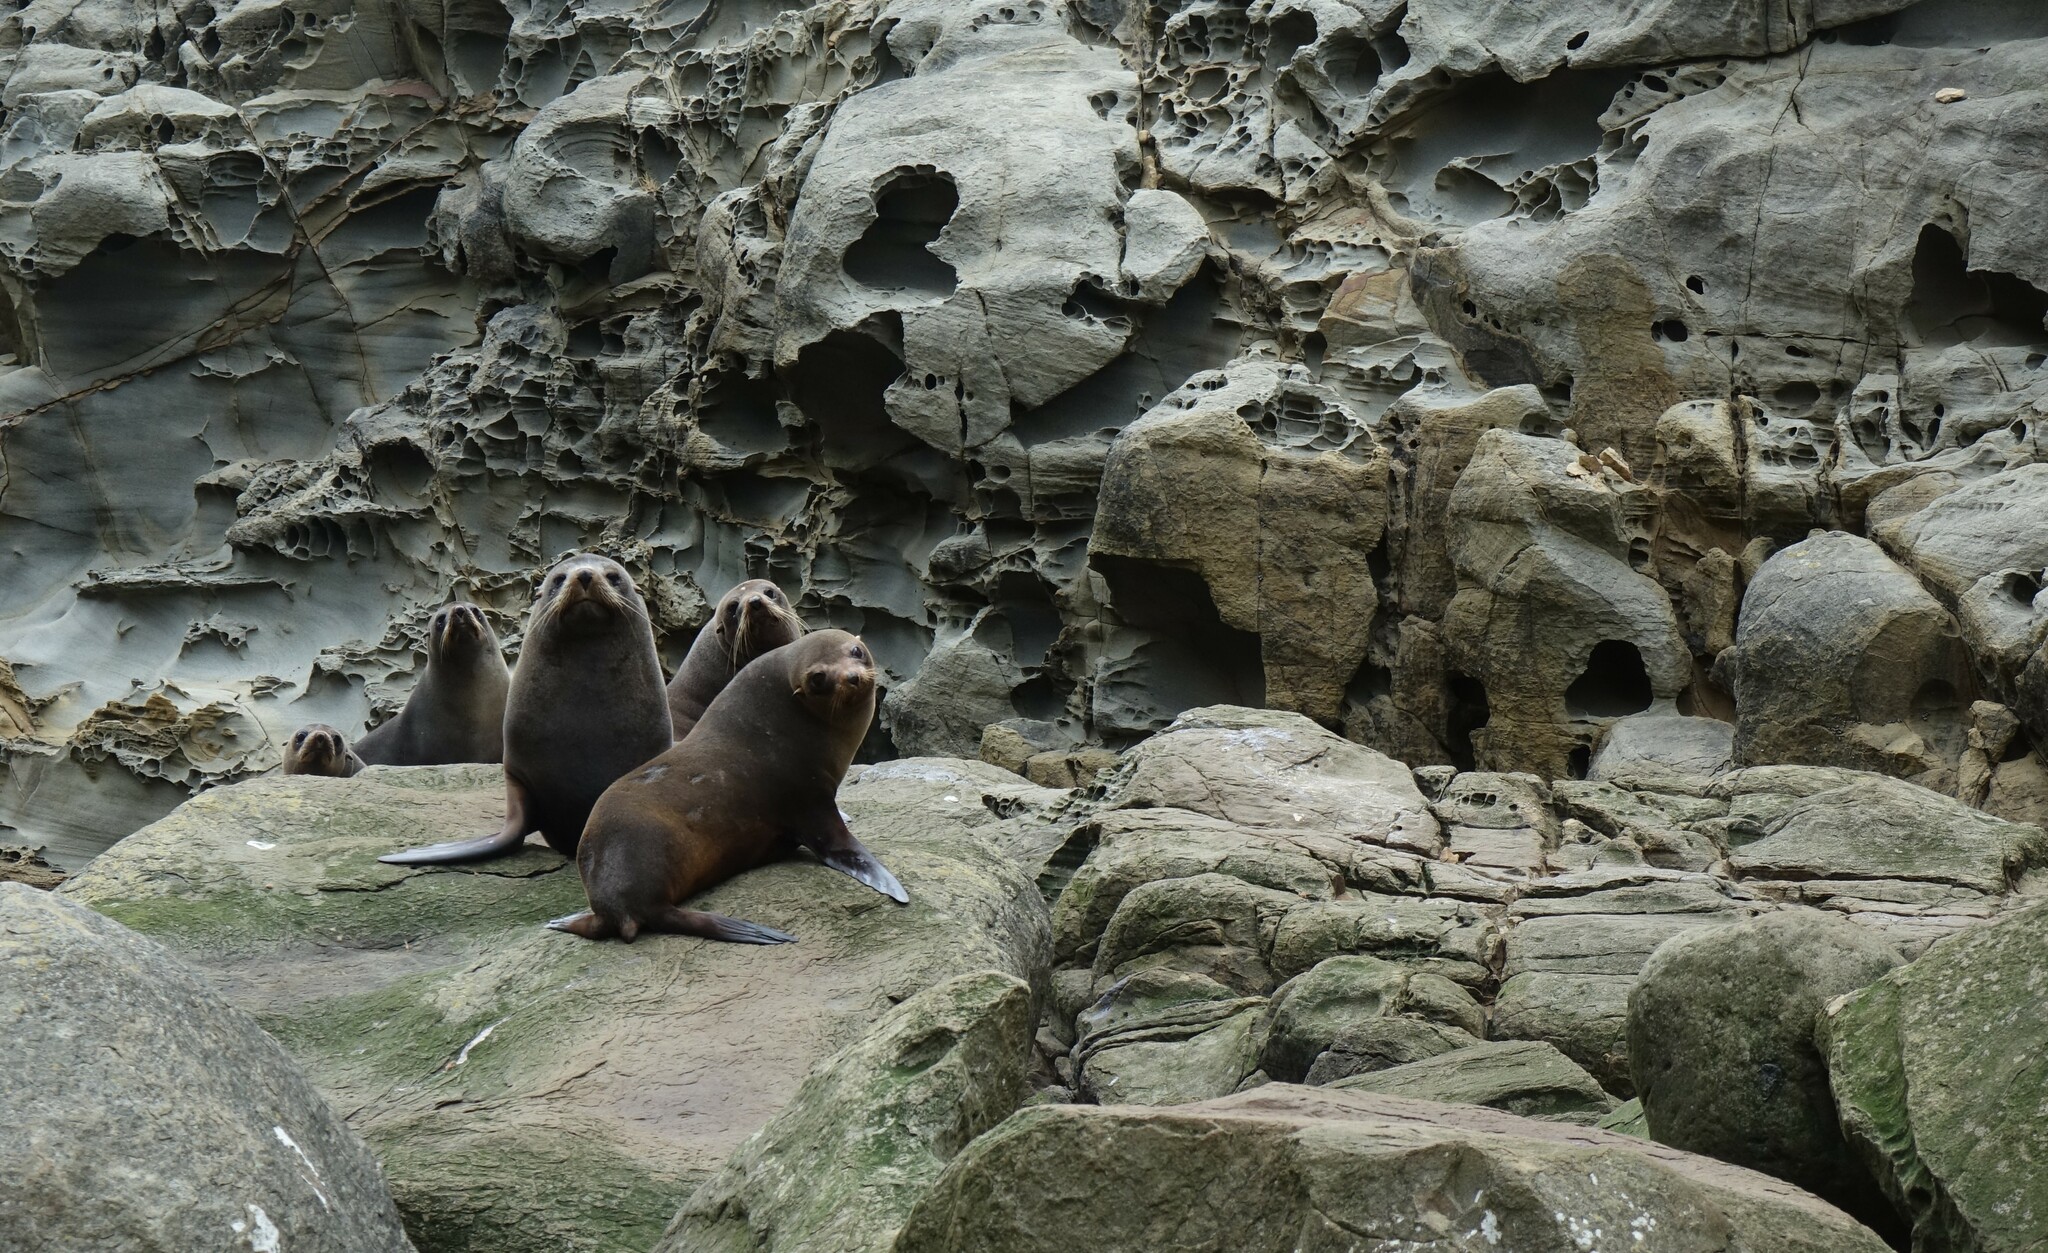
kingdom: Animalia
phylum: Chordata
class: Mammalia
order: Carnivora
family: Otariidae
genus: Arctocephalus
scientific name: Arctocephalus forsteri
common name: New zealand fur seal
